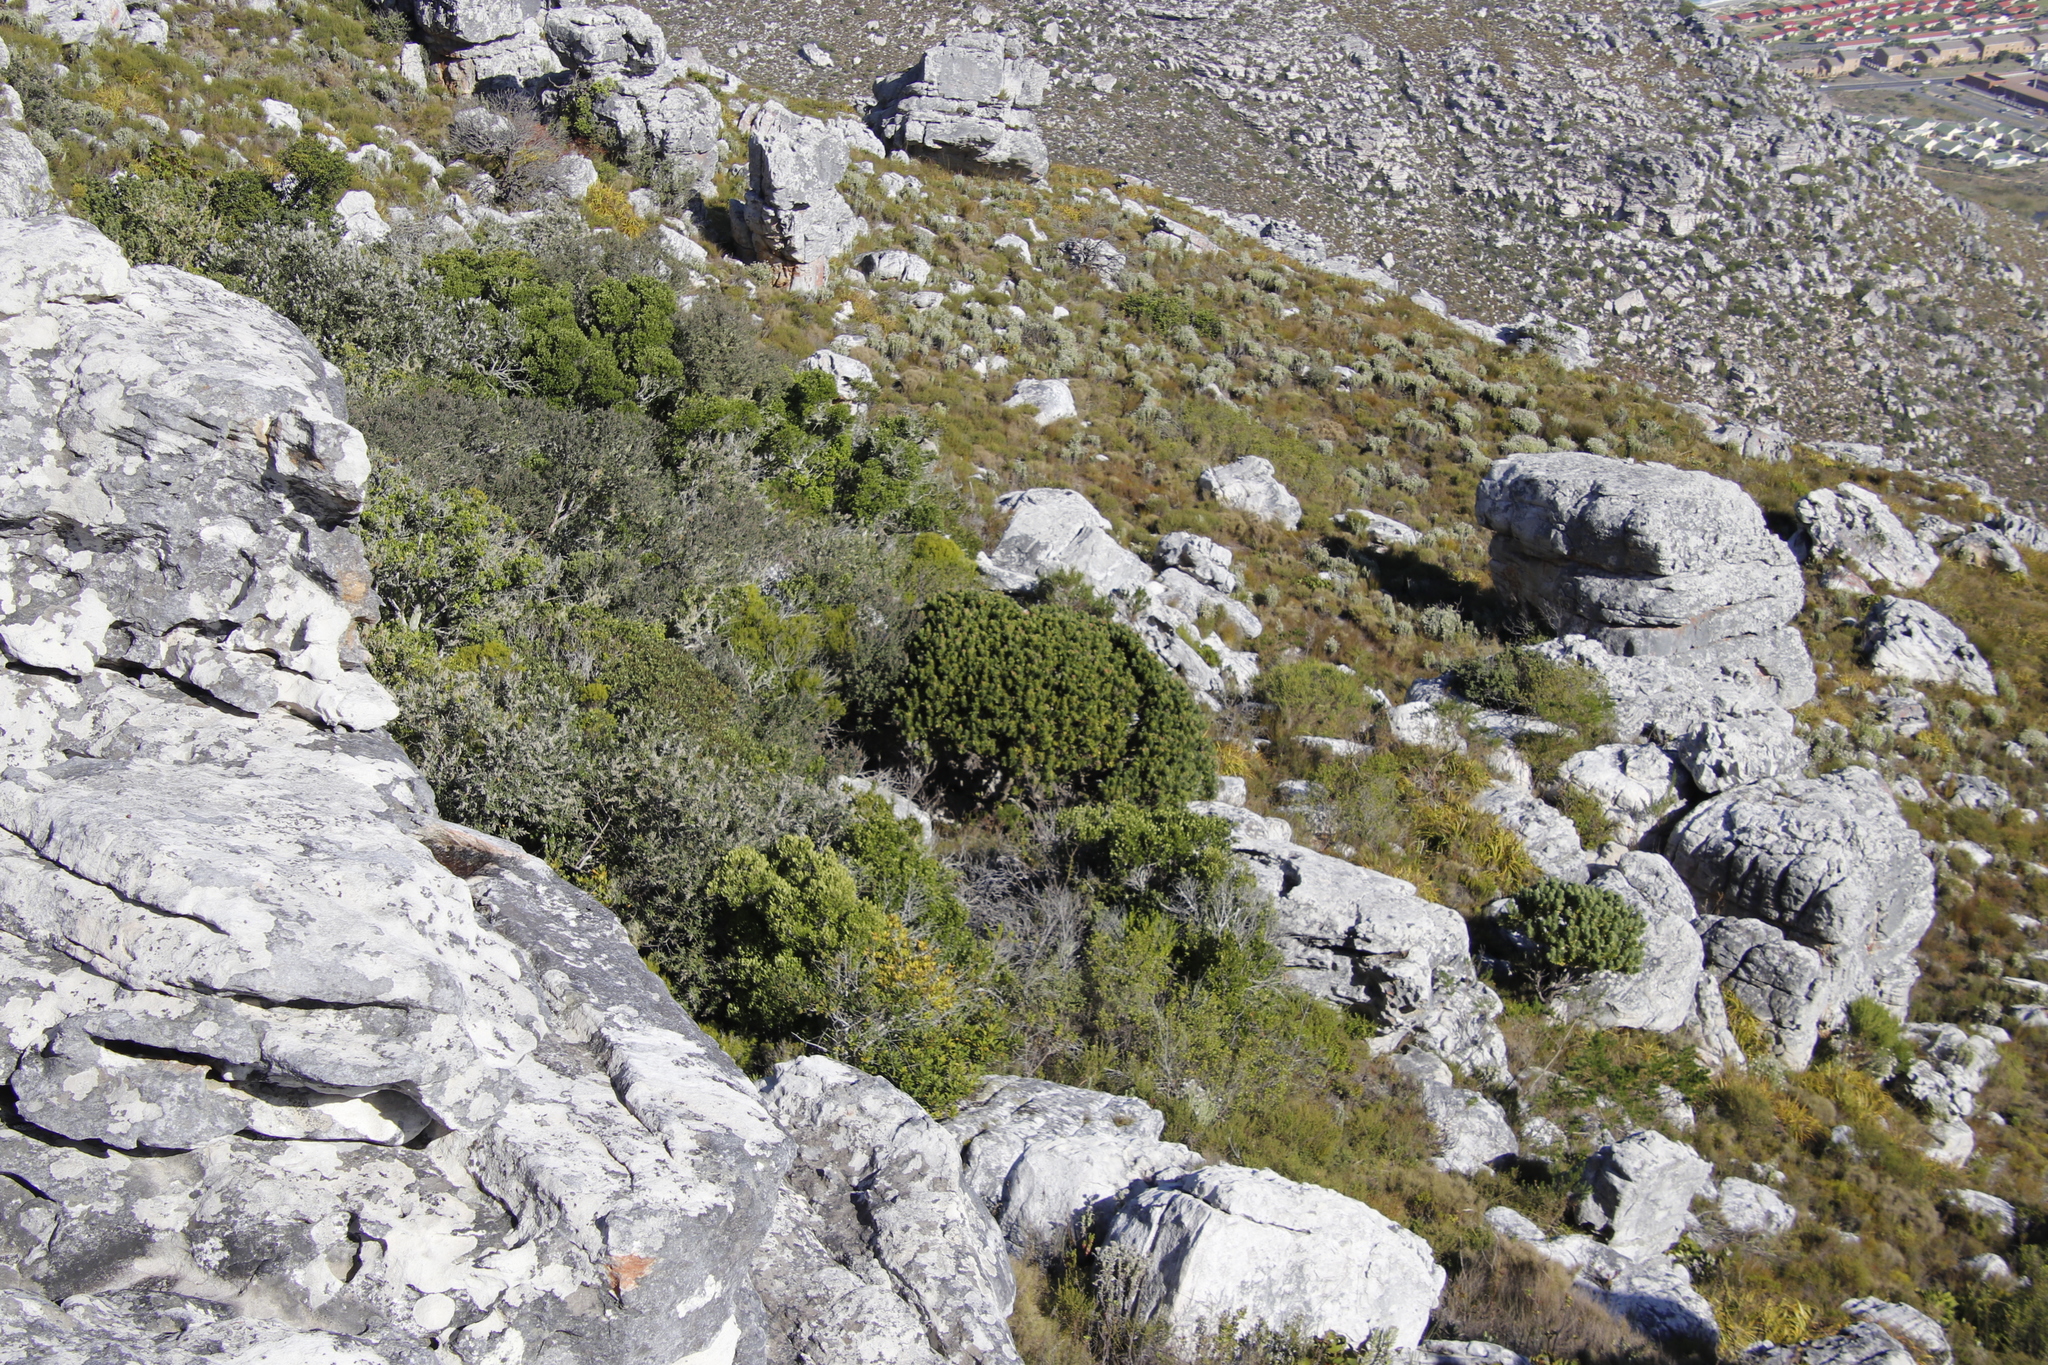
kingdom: Plantae
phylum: Tracheophyta
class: Magnoliopsida
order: Proteales
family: Proteaceae
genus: Mimetes
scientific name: Mimetes fimbriifolius
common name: Fringed bottlebrush
